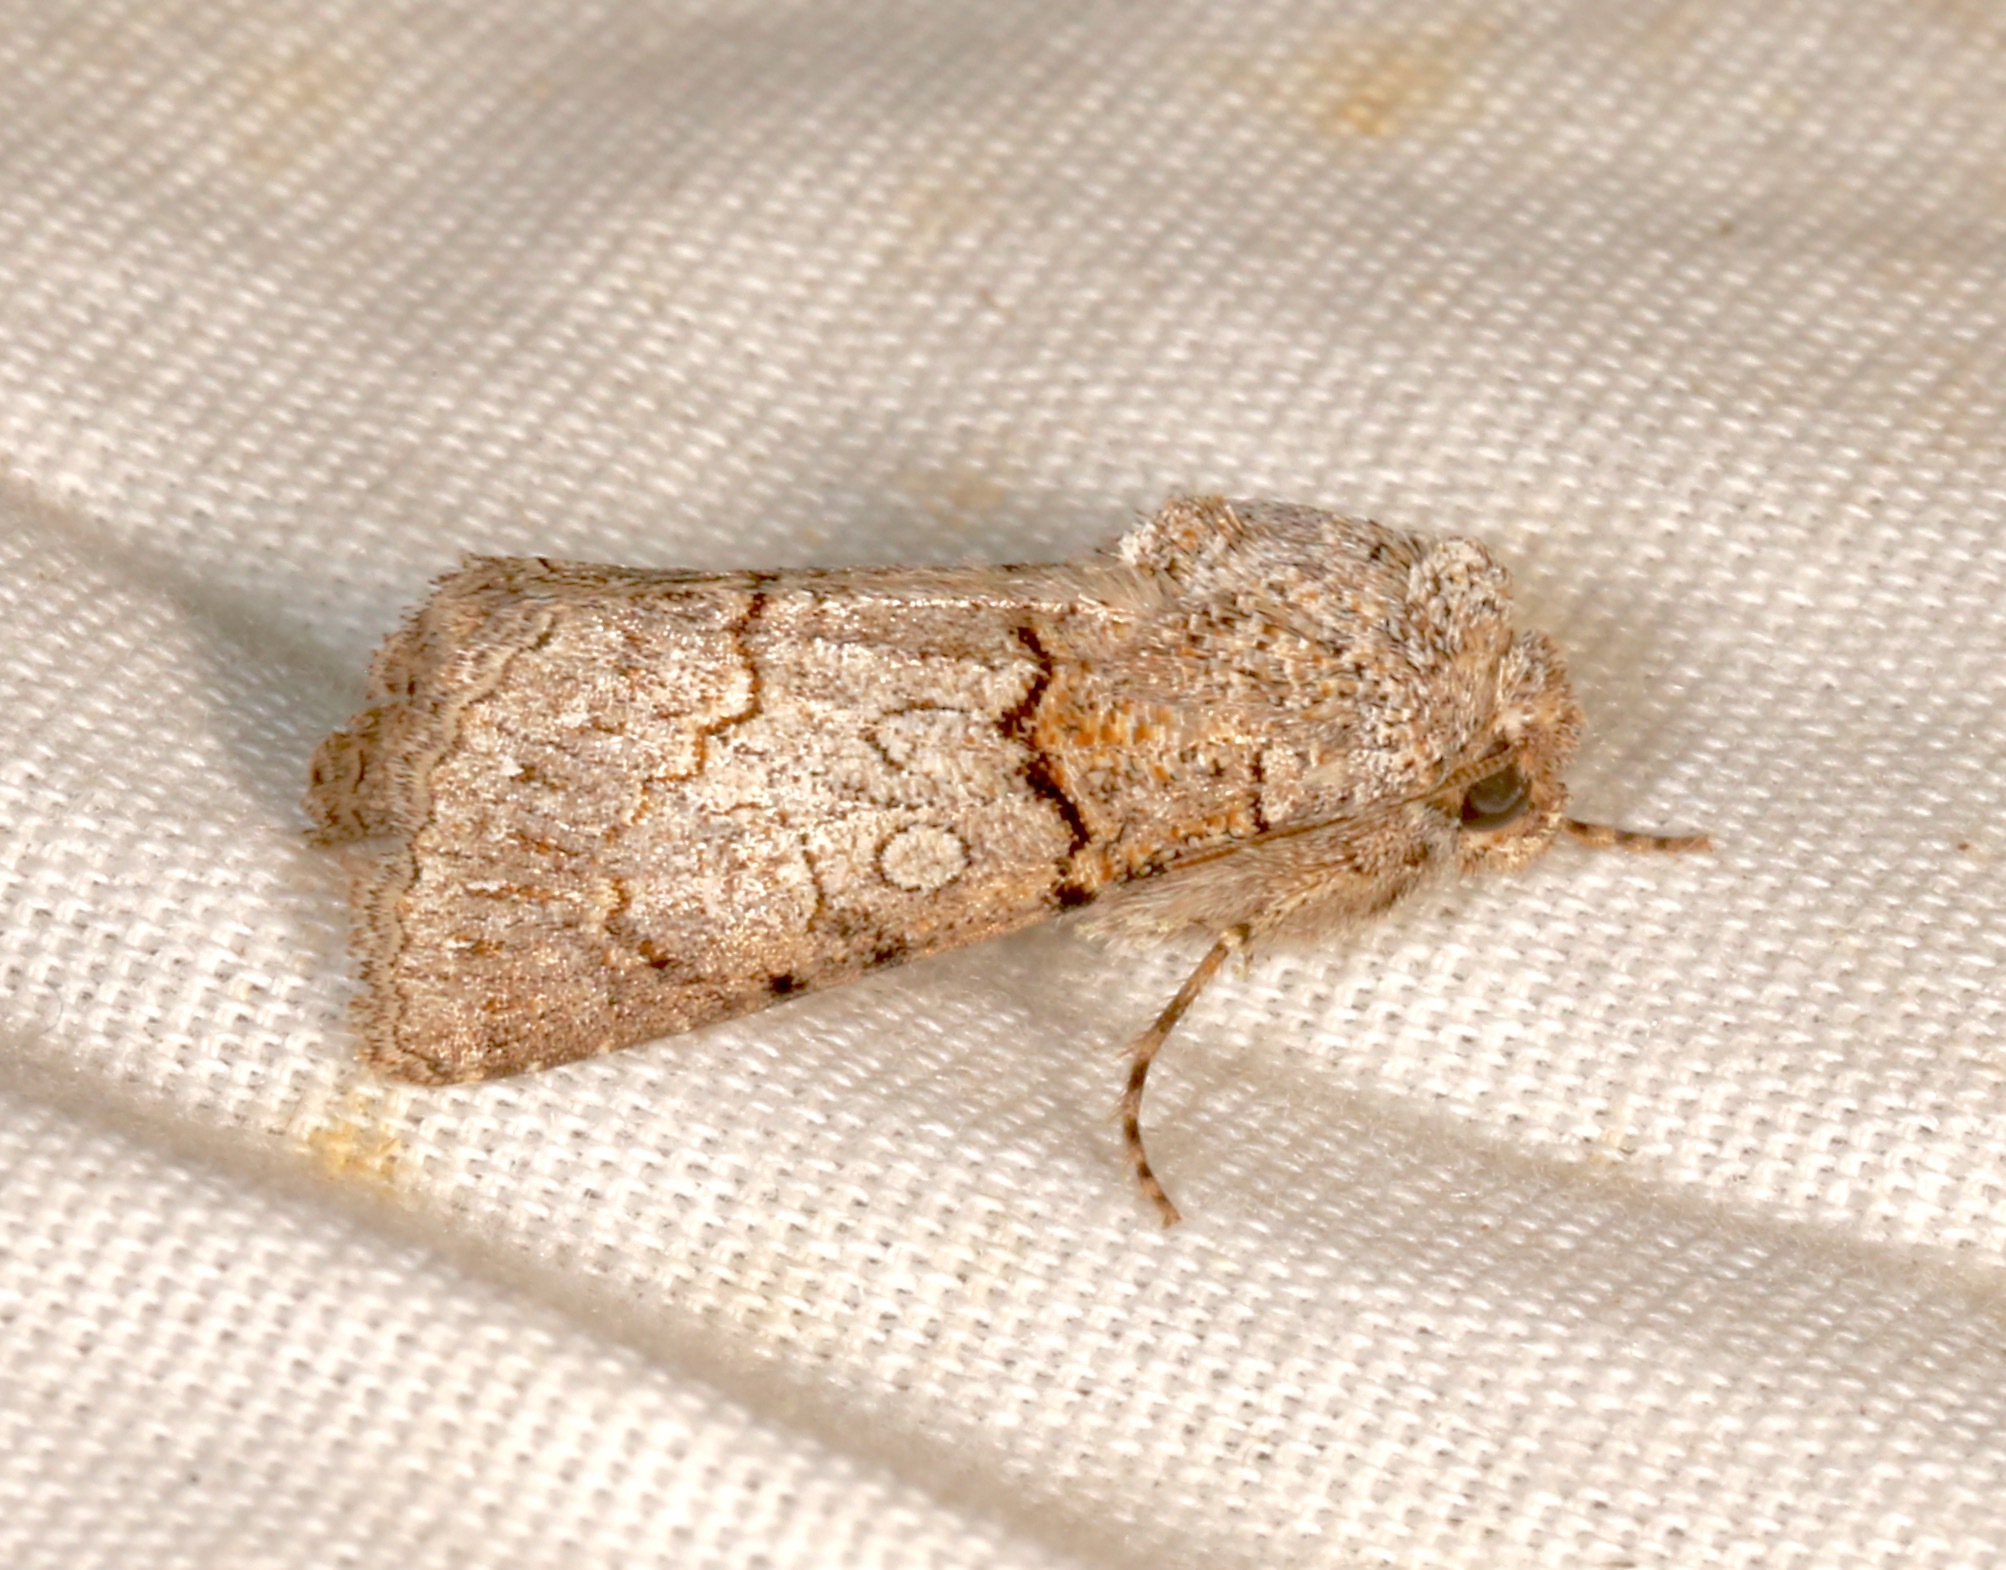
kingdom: Animalia
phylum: Arthropoda
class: Insecta
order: Lepidoptera
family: Noctuidae
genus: Sympistis
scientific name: Sympistis perscripta
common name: Scribbled sallow
